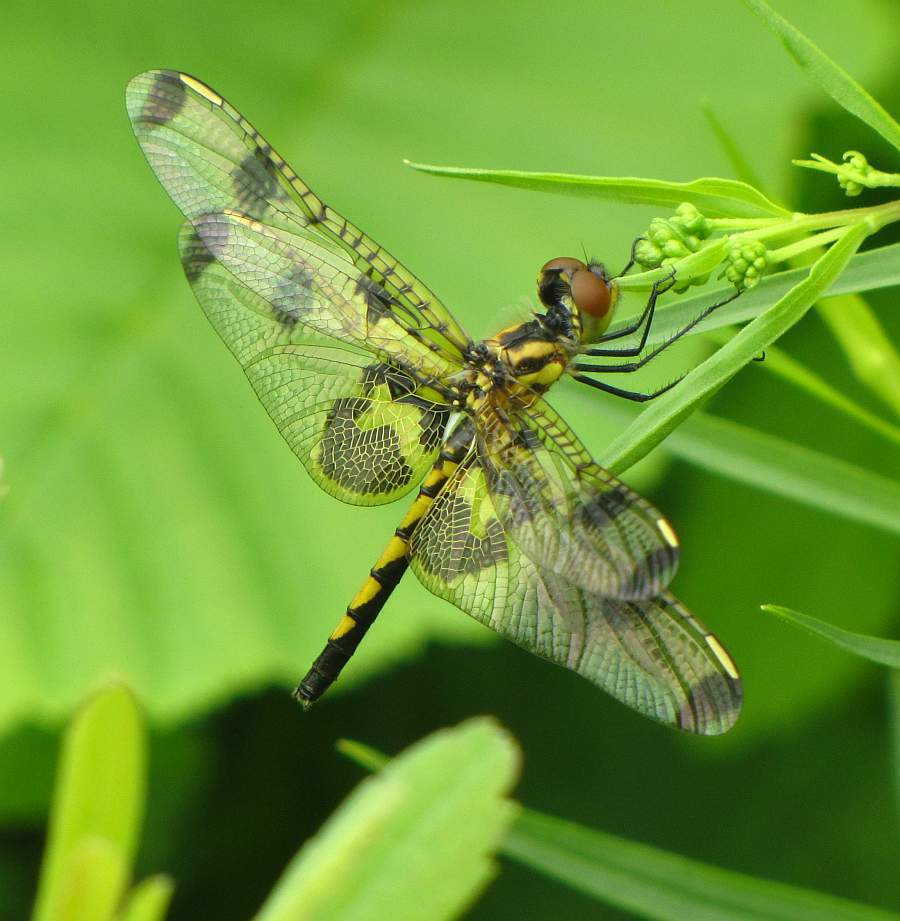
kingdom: Animalia
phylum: Arthropoda
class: Insecta
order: Odonata
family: Libellulidae
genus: Celithemis
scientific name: Celithemis elisa
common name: Calico pennant
